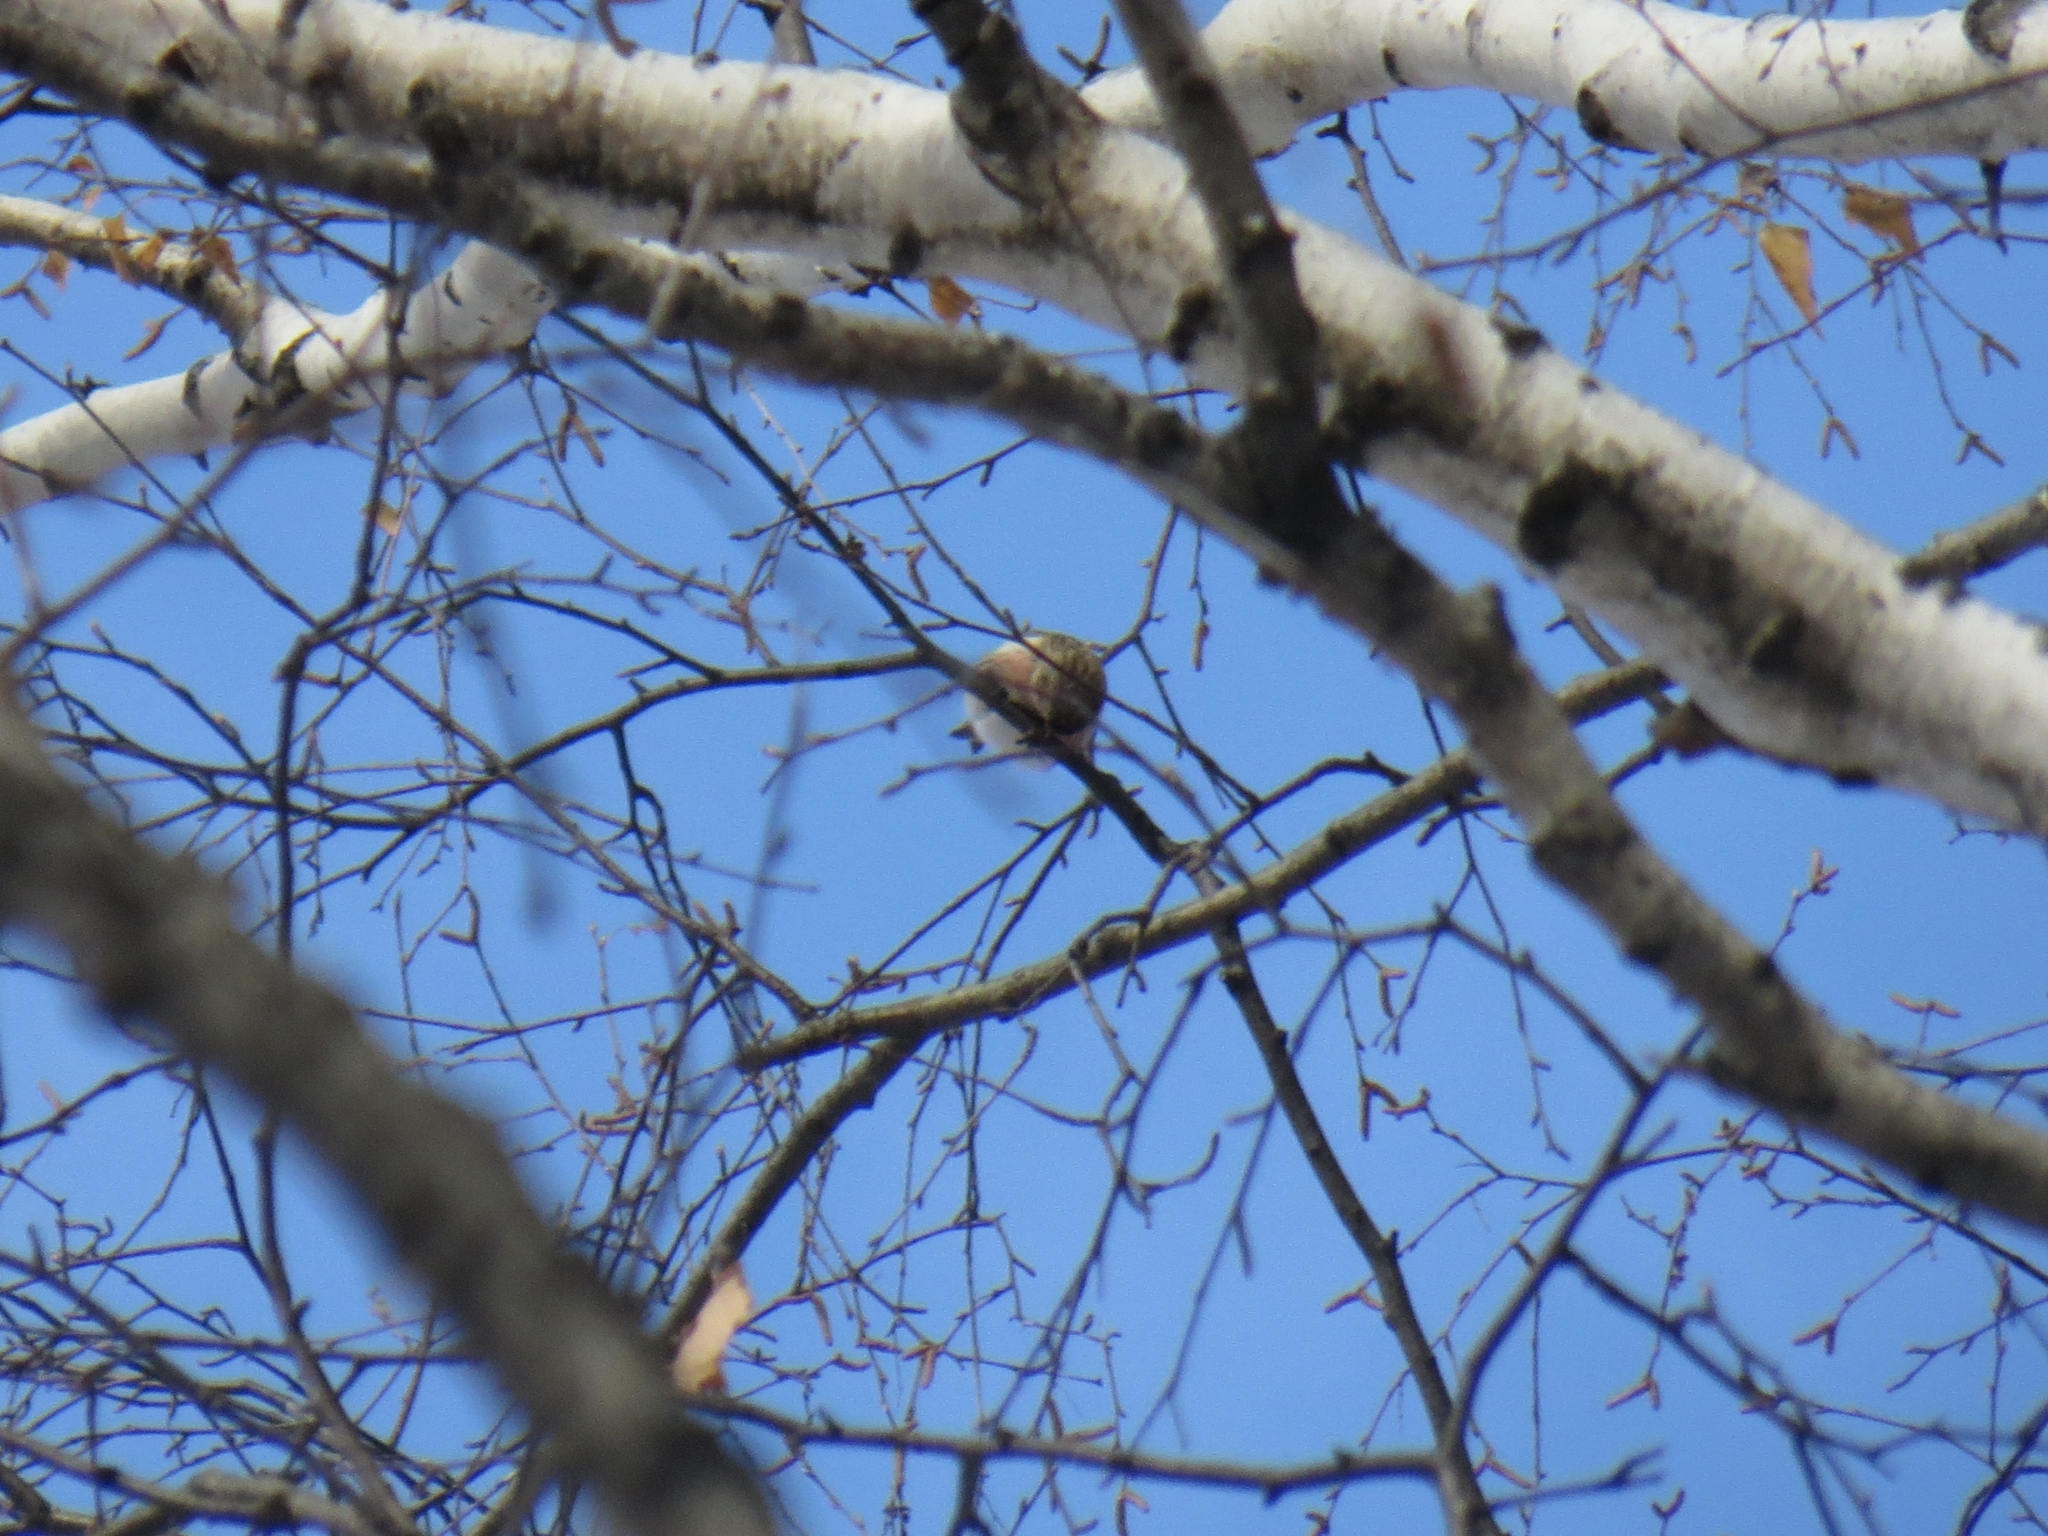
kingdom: Animalia
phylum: Chordata
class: Aves
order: Passeriformes
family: Fringillidae
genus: Acanthis
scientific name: Acanthis flammea
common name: Common redpoll
